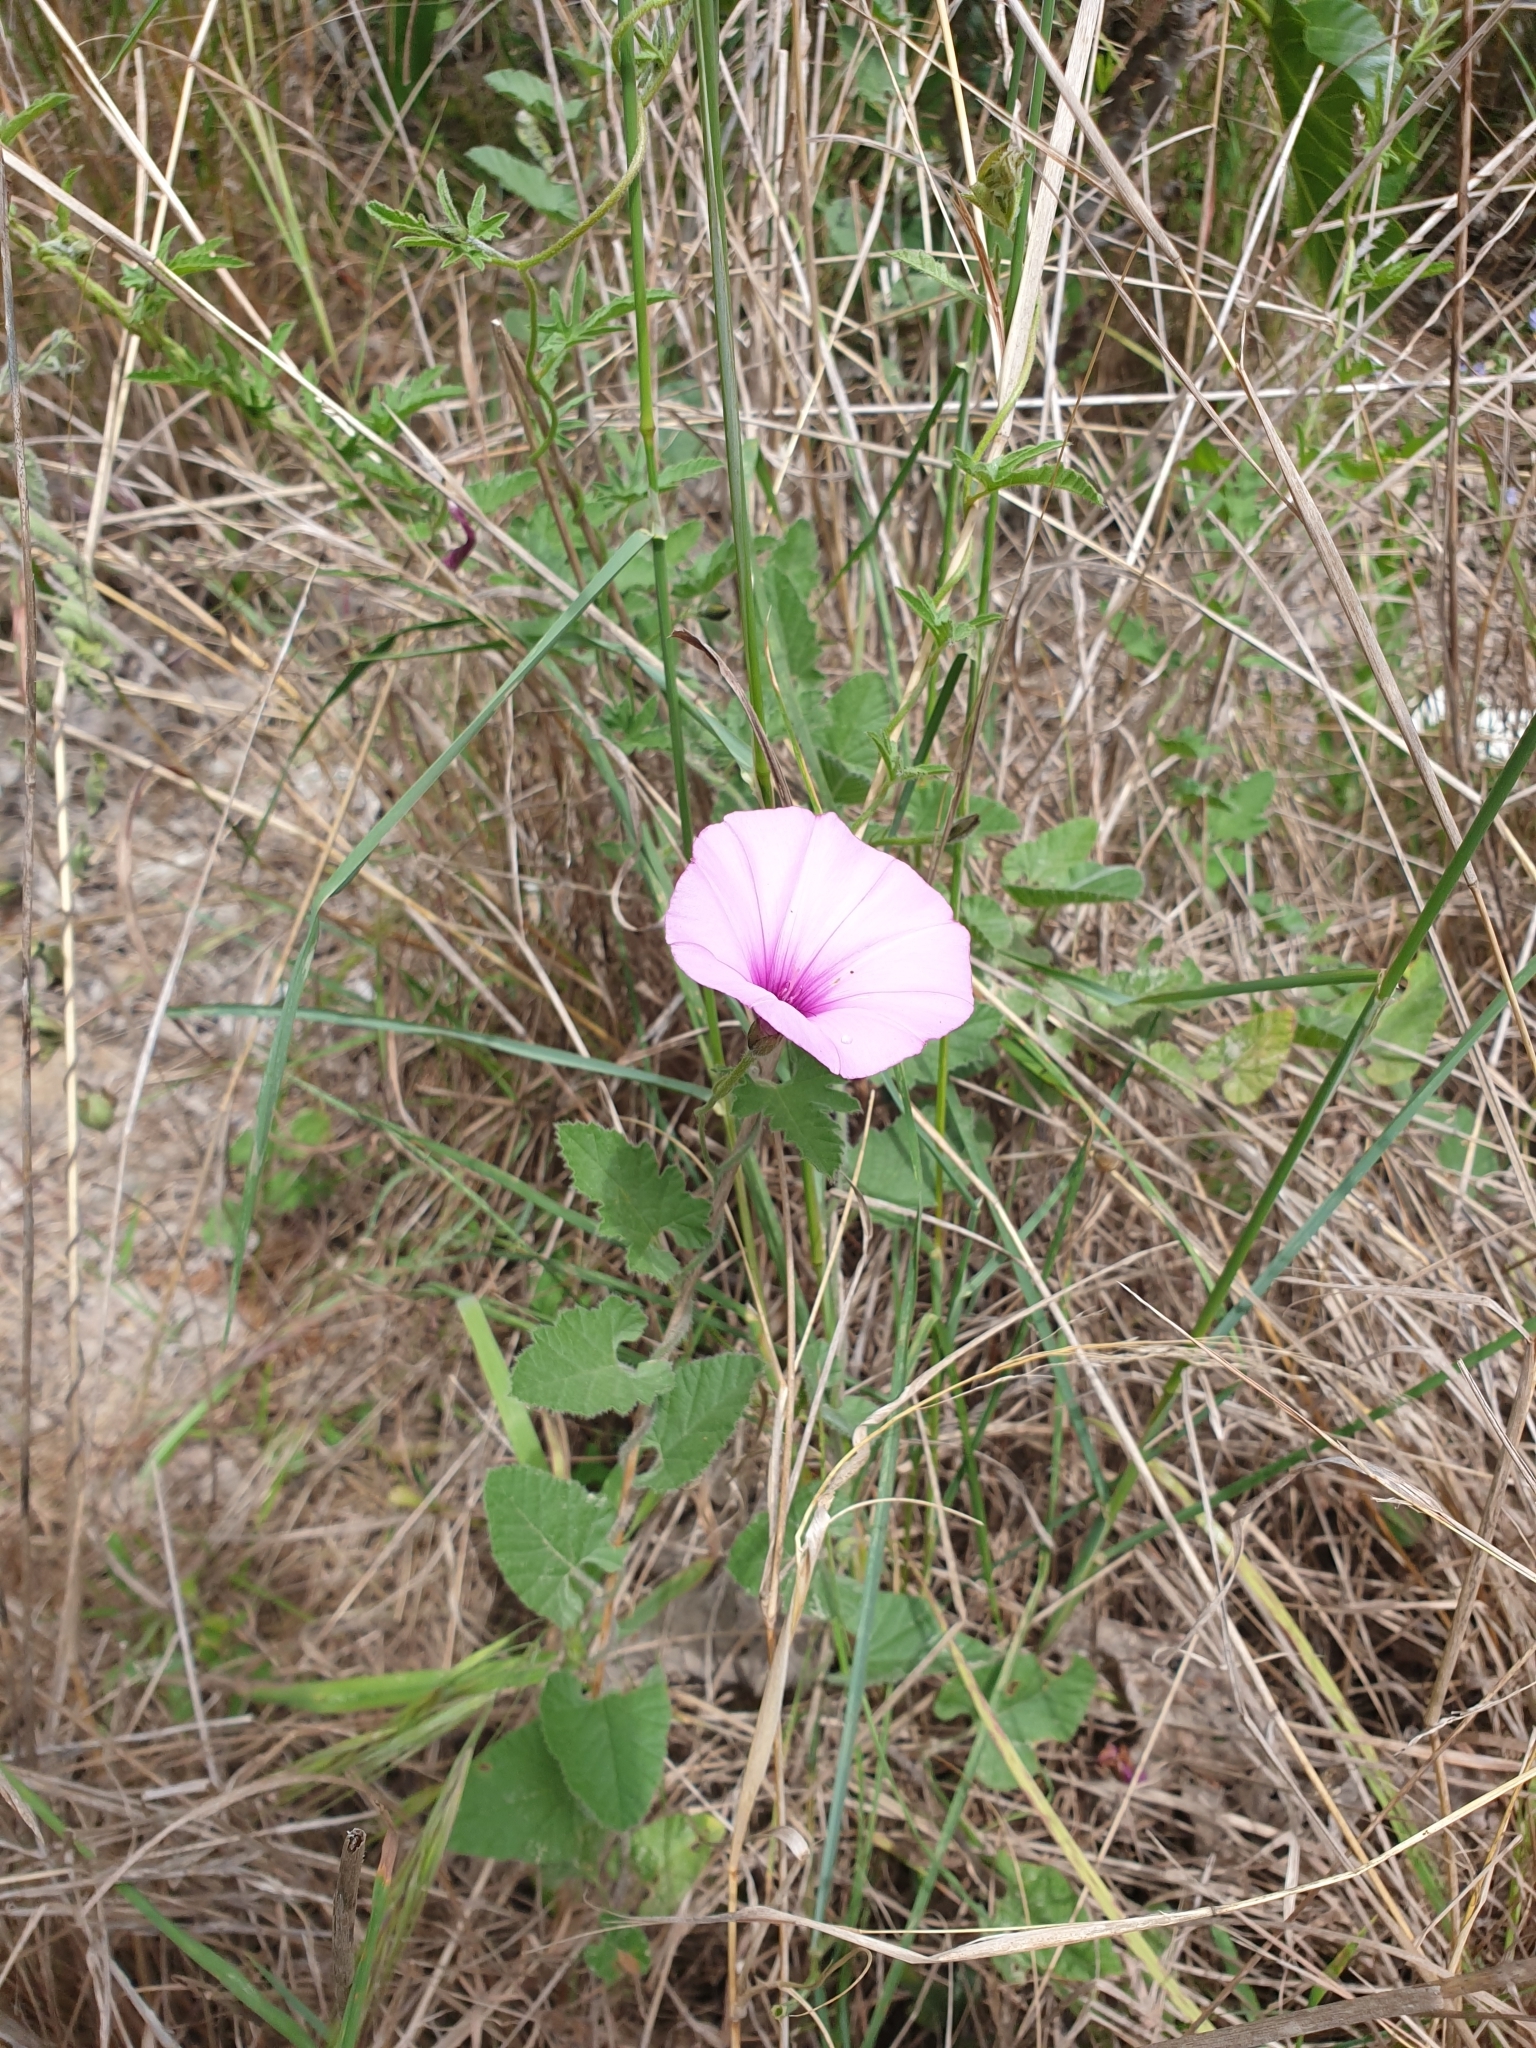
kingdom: Plantae
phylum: Tracheophyta
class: Magnoliopsida
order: Solanales
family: Convolvulaceae
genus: Convolvulus
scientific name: Convolvulus althaeoides
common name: Mallow bindweed
